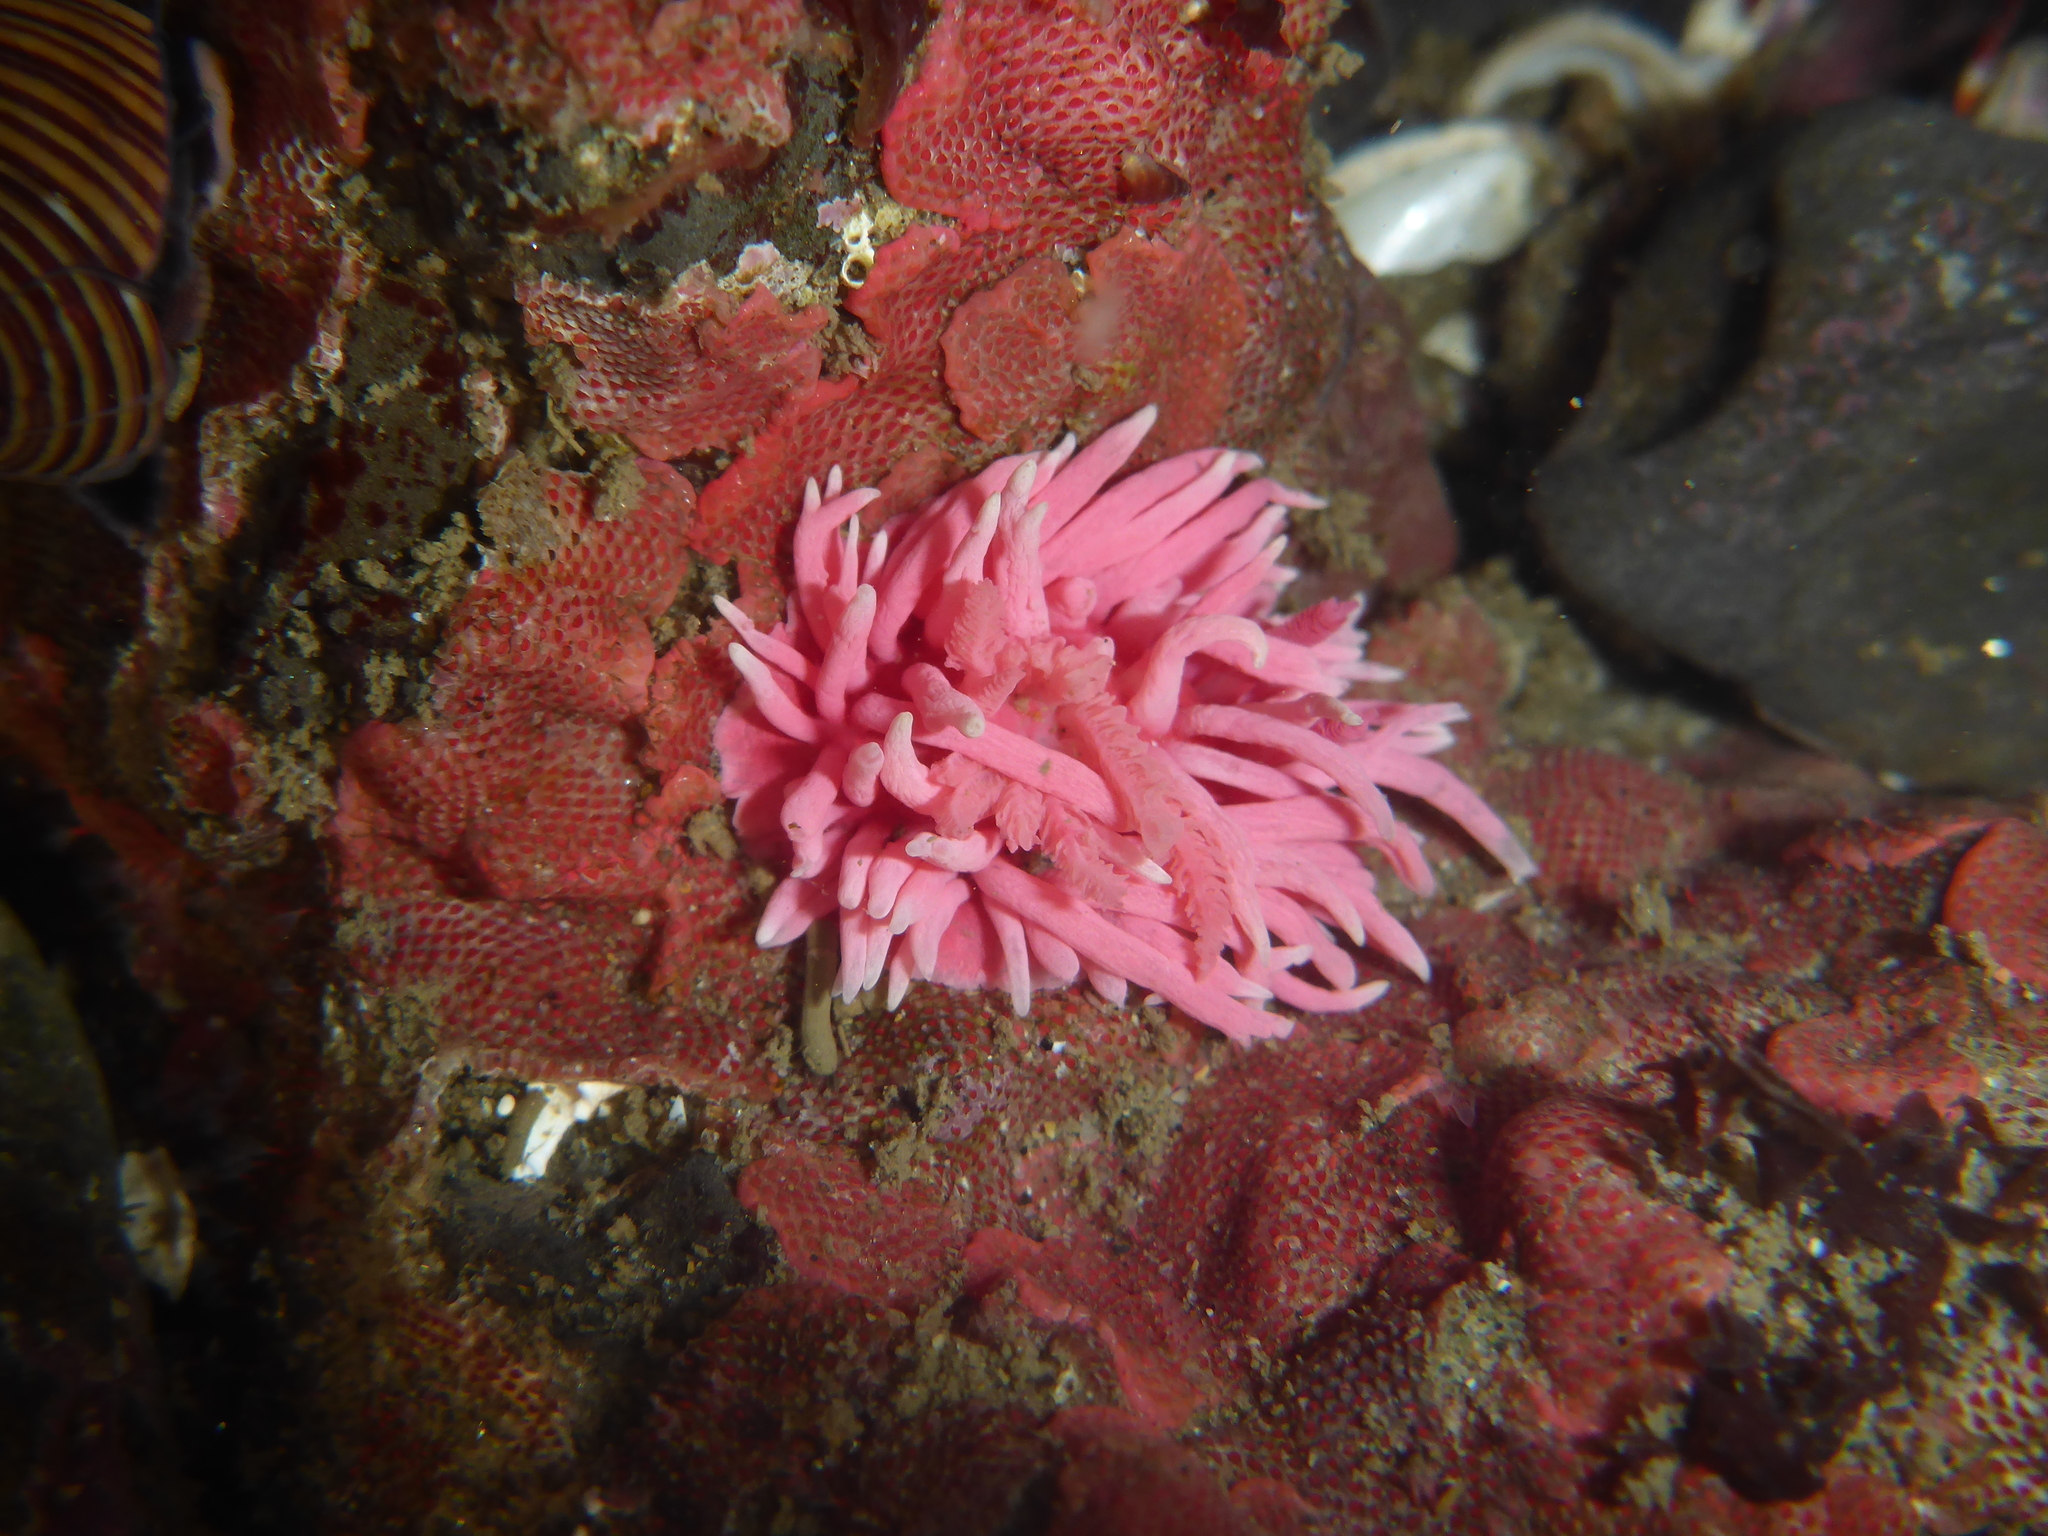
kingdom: Animalia
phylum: Mollusca
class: Gastropoda
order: Nudibranchia
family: Goniodorididae
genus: Okenia
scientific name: Okenia
